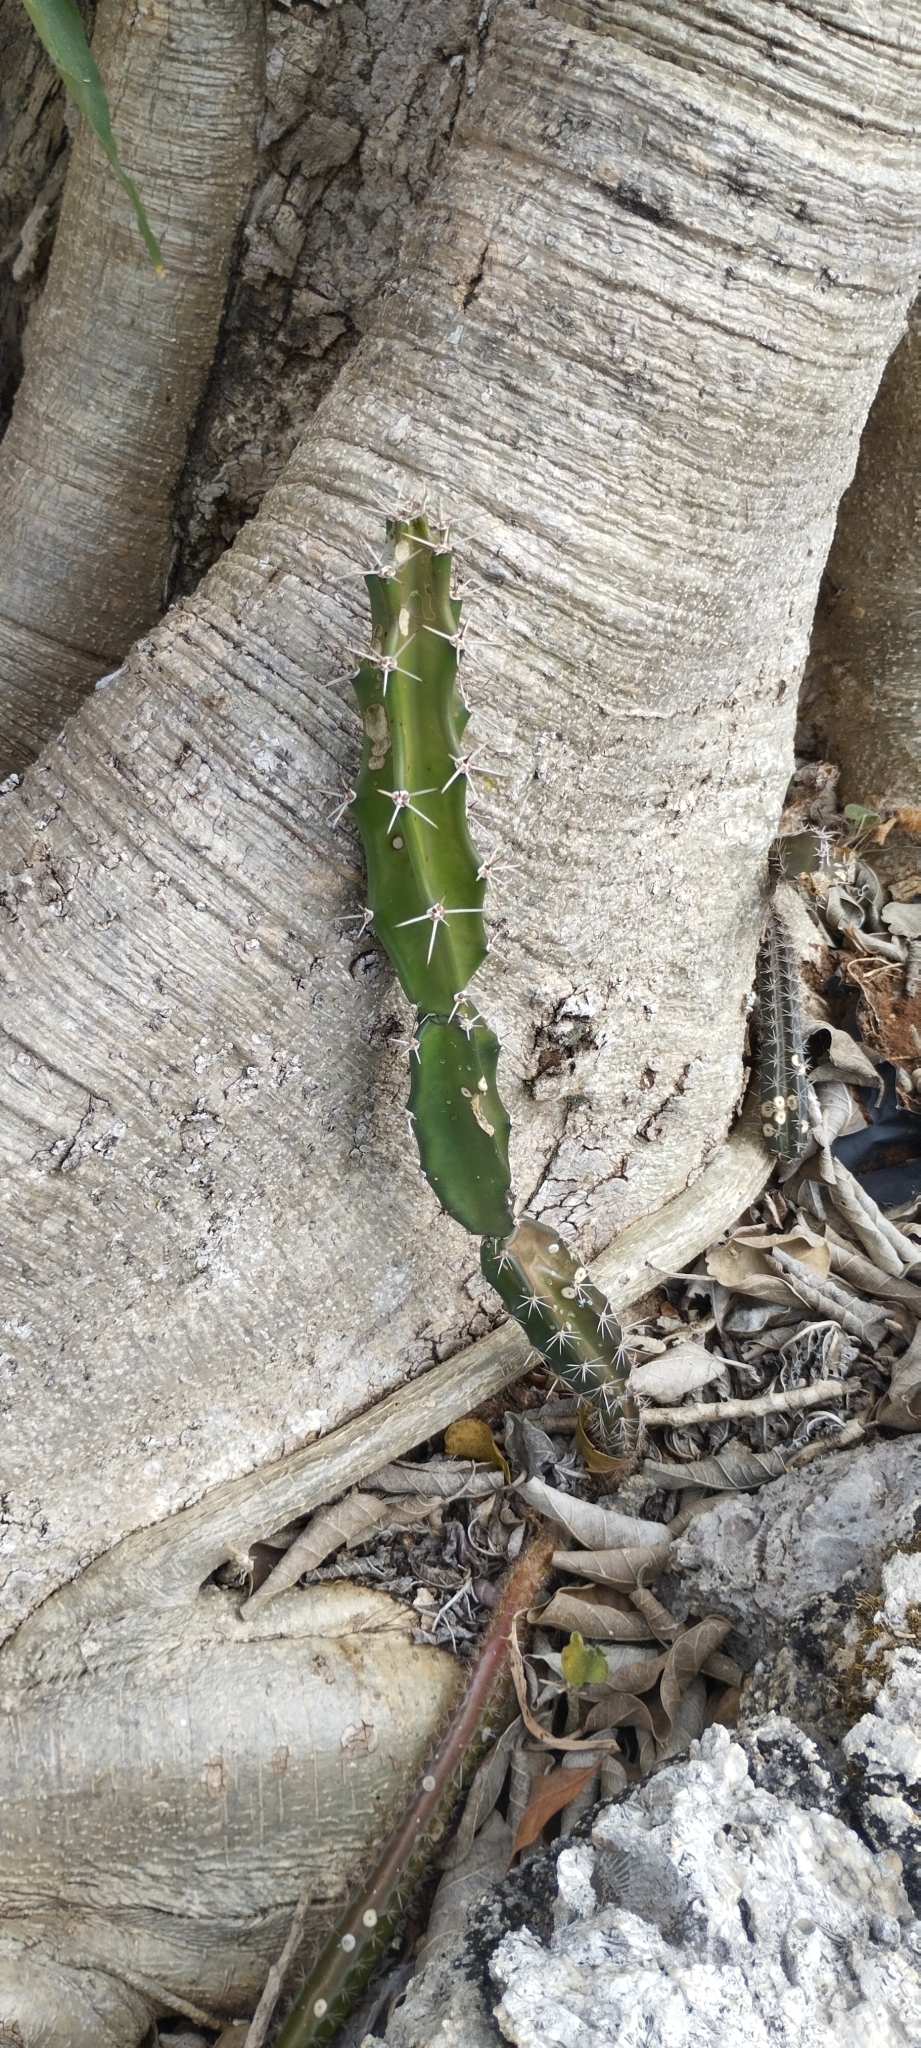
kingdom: Plantae
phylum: Tracheophyta
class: Magnoliopsida
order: Caryophyllales
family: Cactaceae
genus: Acanthocereus
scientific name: Acanthocereus tetragonus
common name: Triangle cactus
